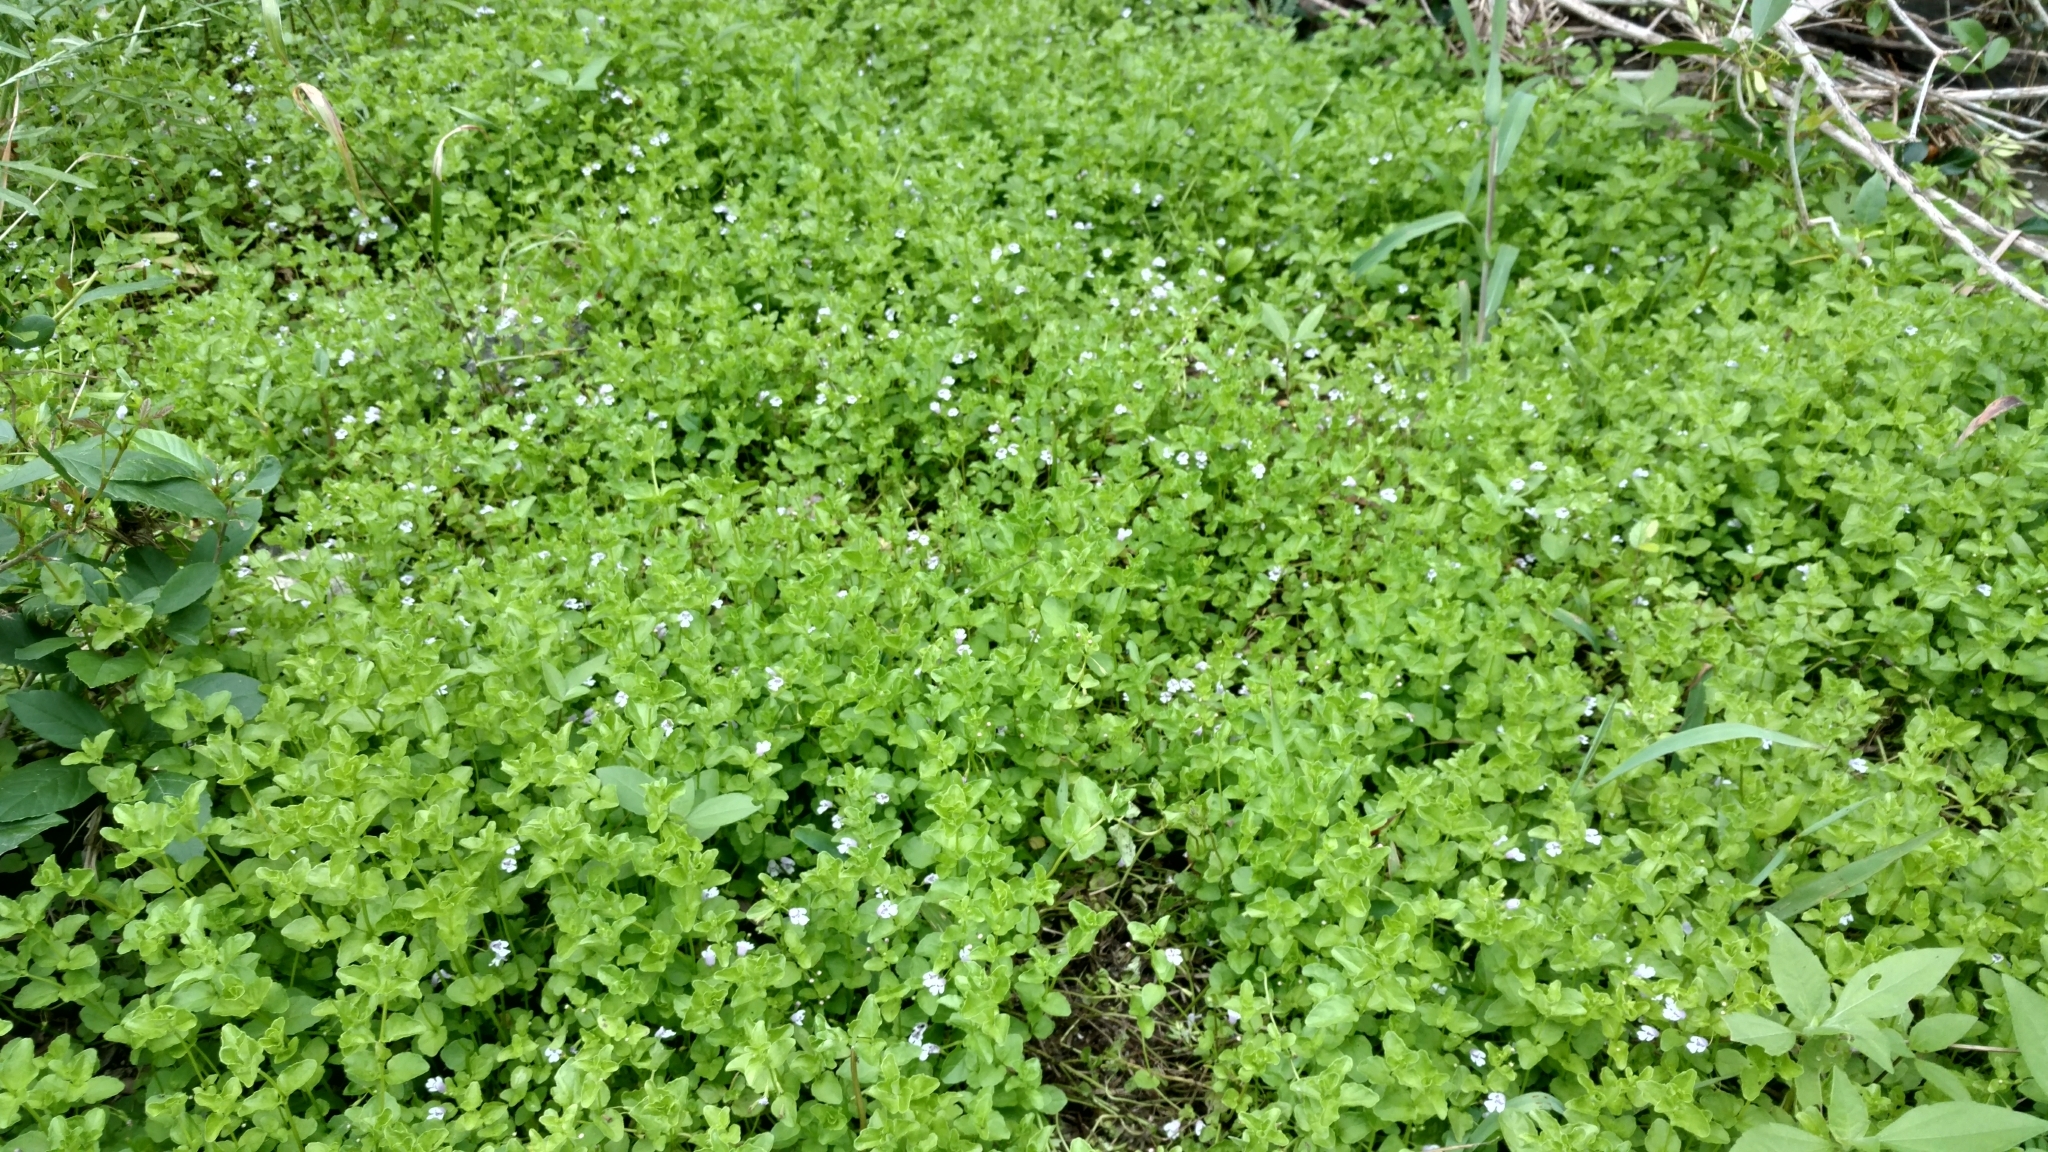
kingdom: Plantae
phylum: Tracheophyta
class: Magnoliopsida
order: Lamiales
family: Lamiaceae
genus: Clinopodium
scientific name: Clinopodium brownei
